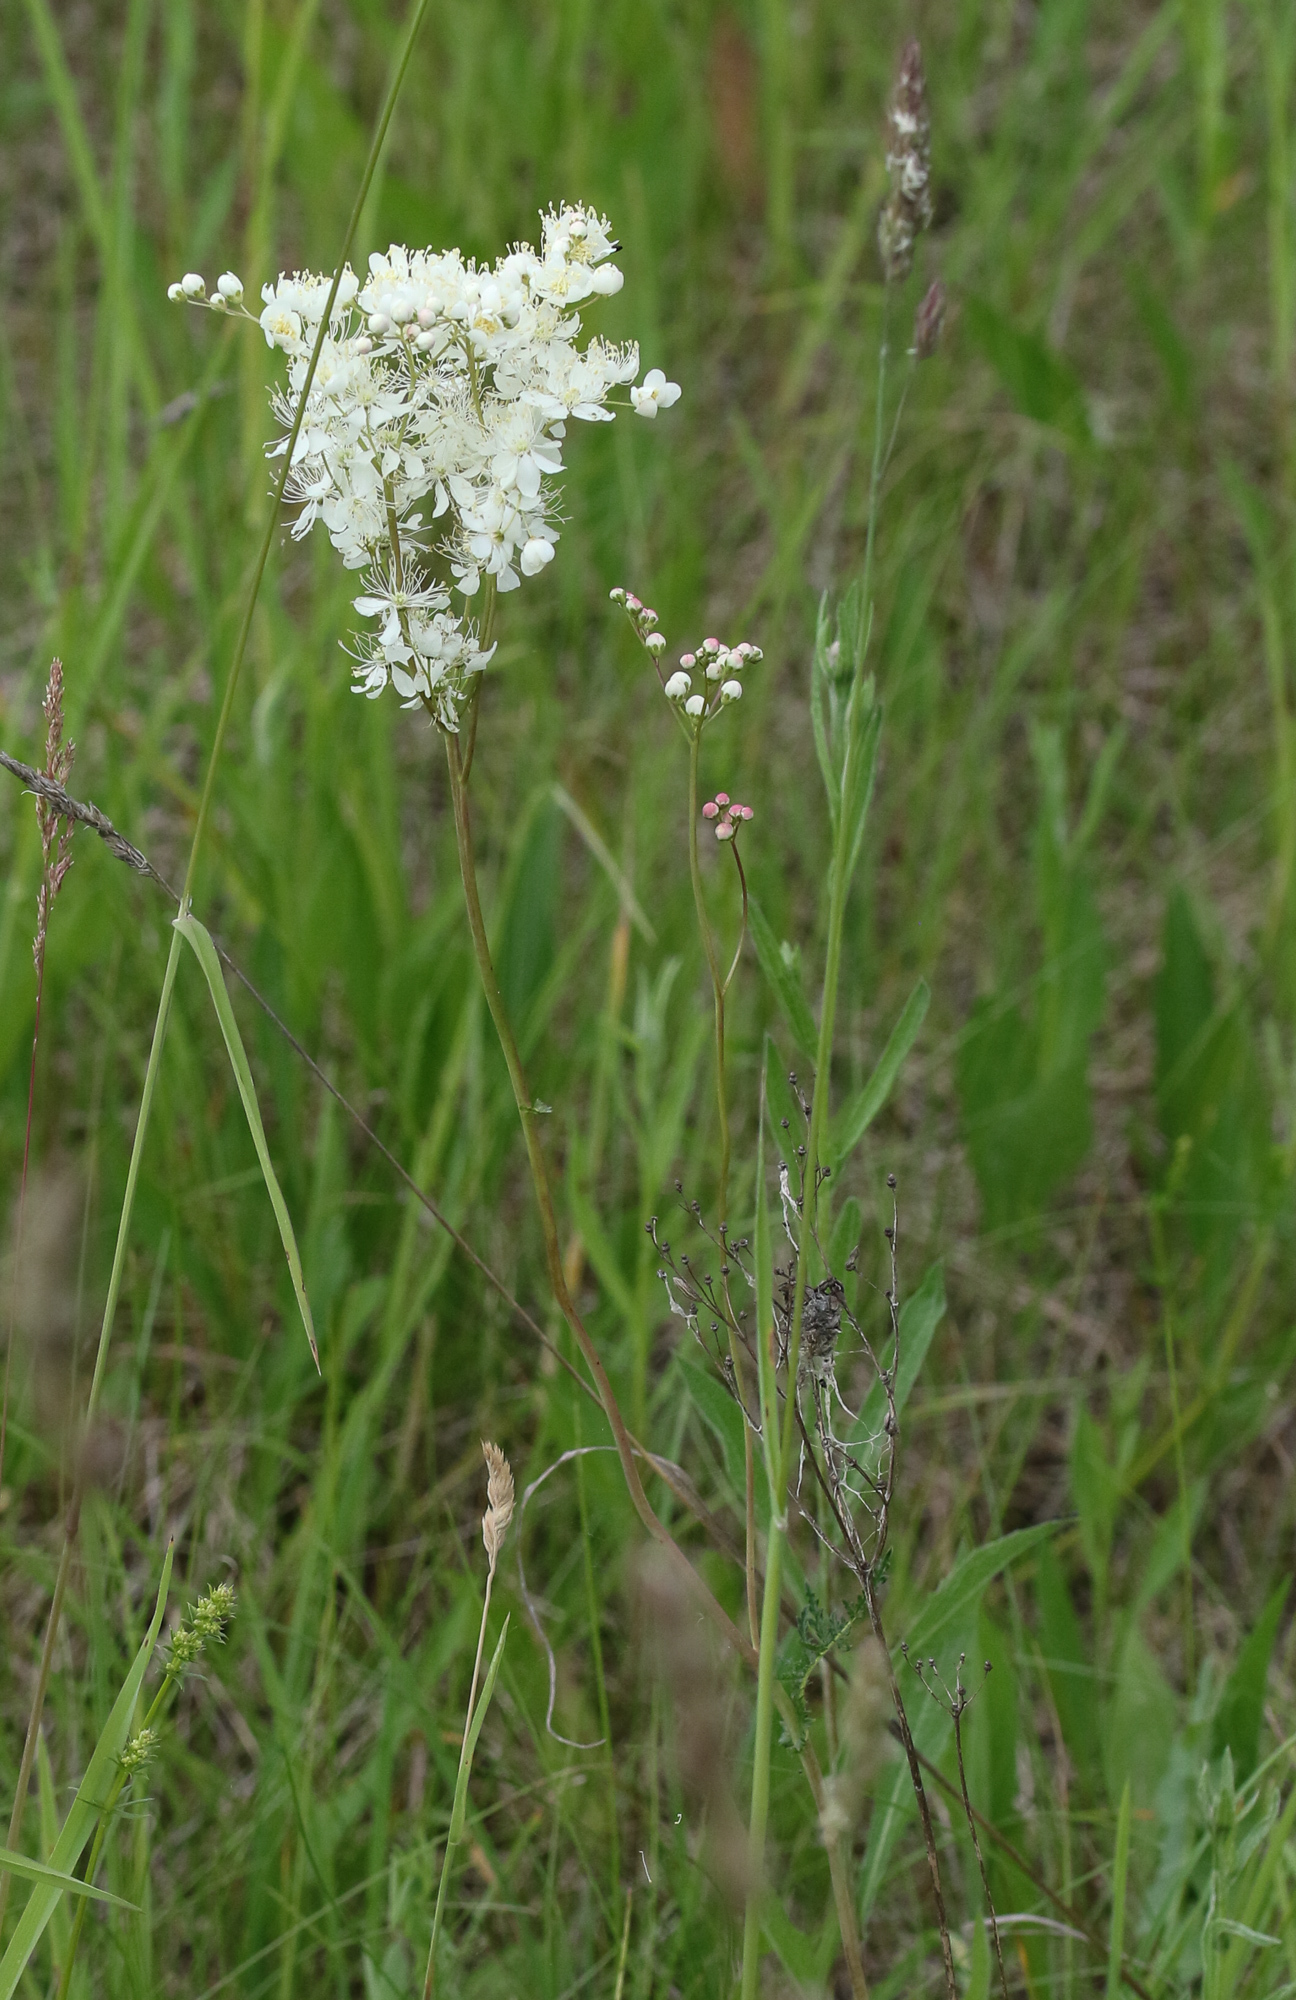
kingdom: Plantae
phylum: Tracheophyta
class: Magnoliopsida
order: Rosales
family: Rosaceae
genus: Filipendula
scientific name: Filipendula vulgaris
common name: Dropwort
